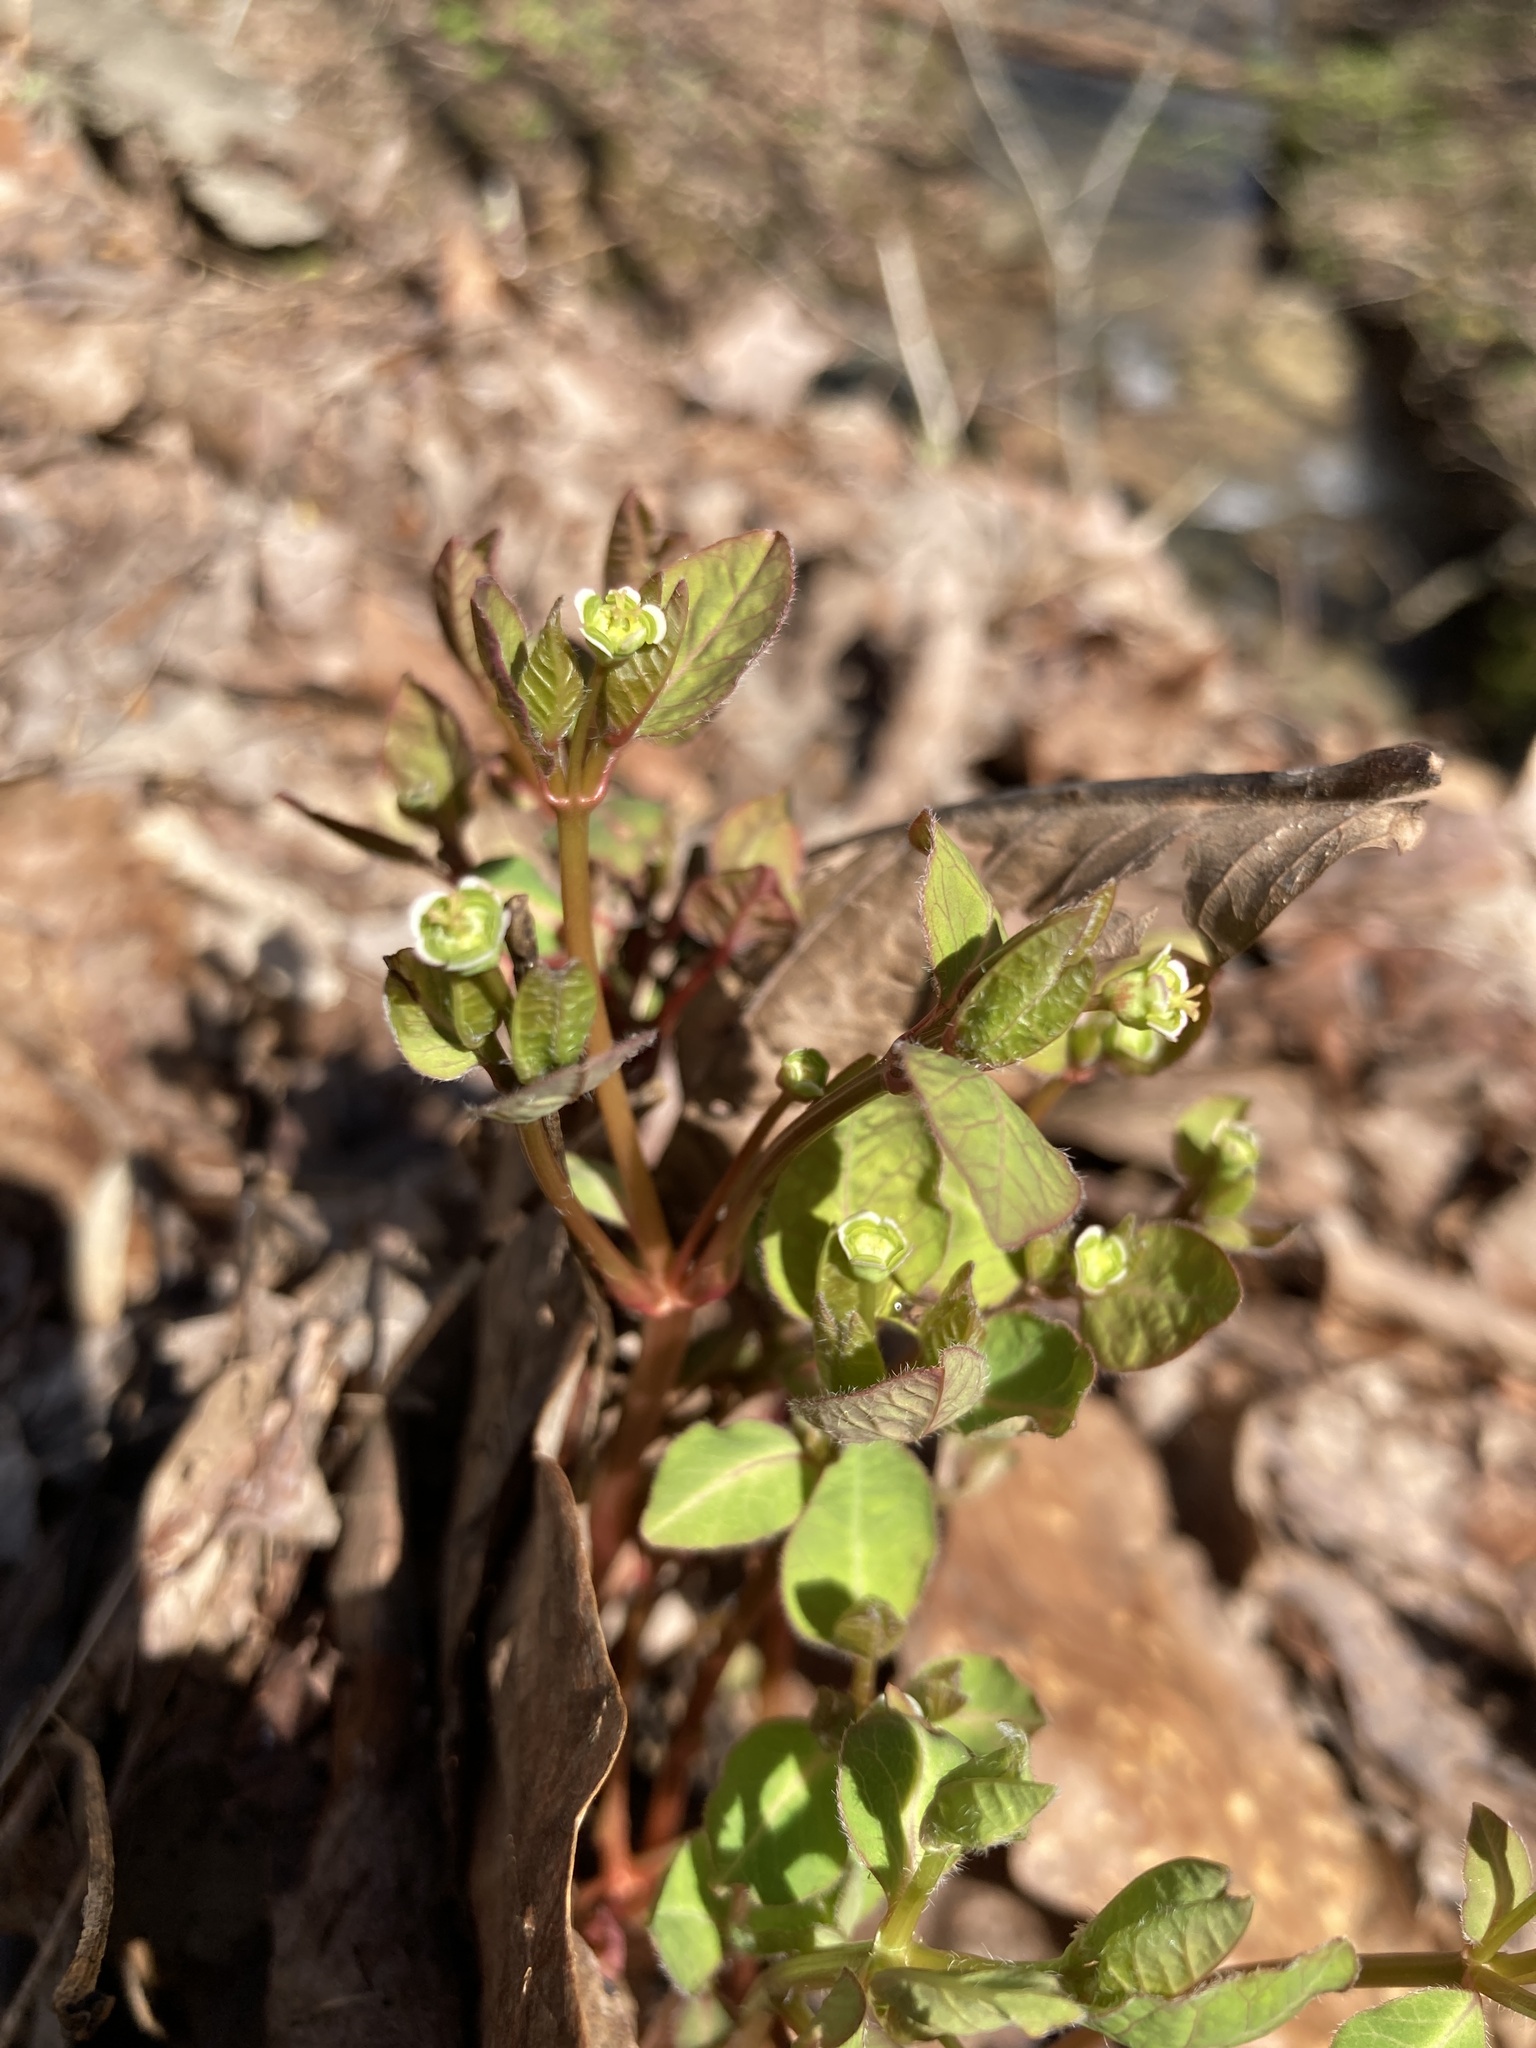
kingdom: Plantae
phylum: Tracheophyta
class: Magnoliopsida
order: Malpighiales
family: Euphorbiaceae
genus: Euphorbia
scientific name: Euphorbia mercurialina
